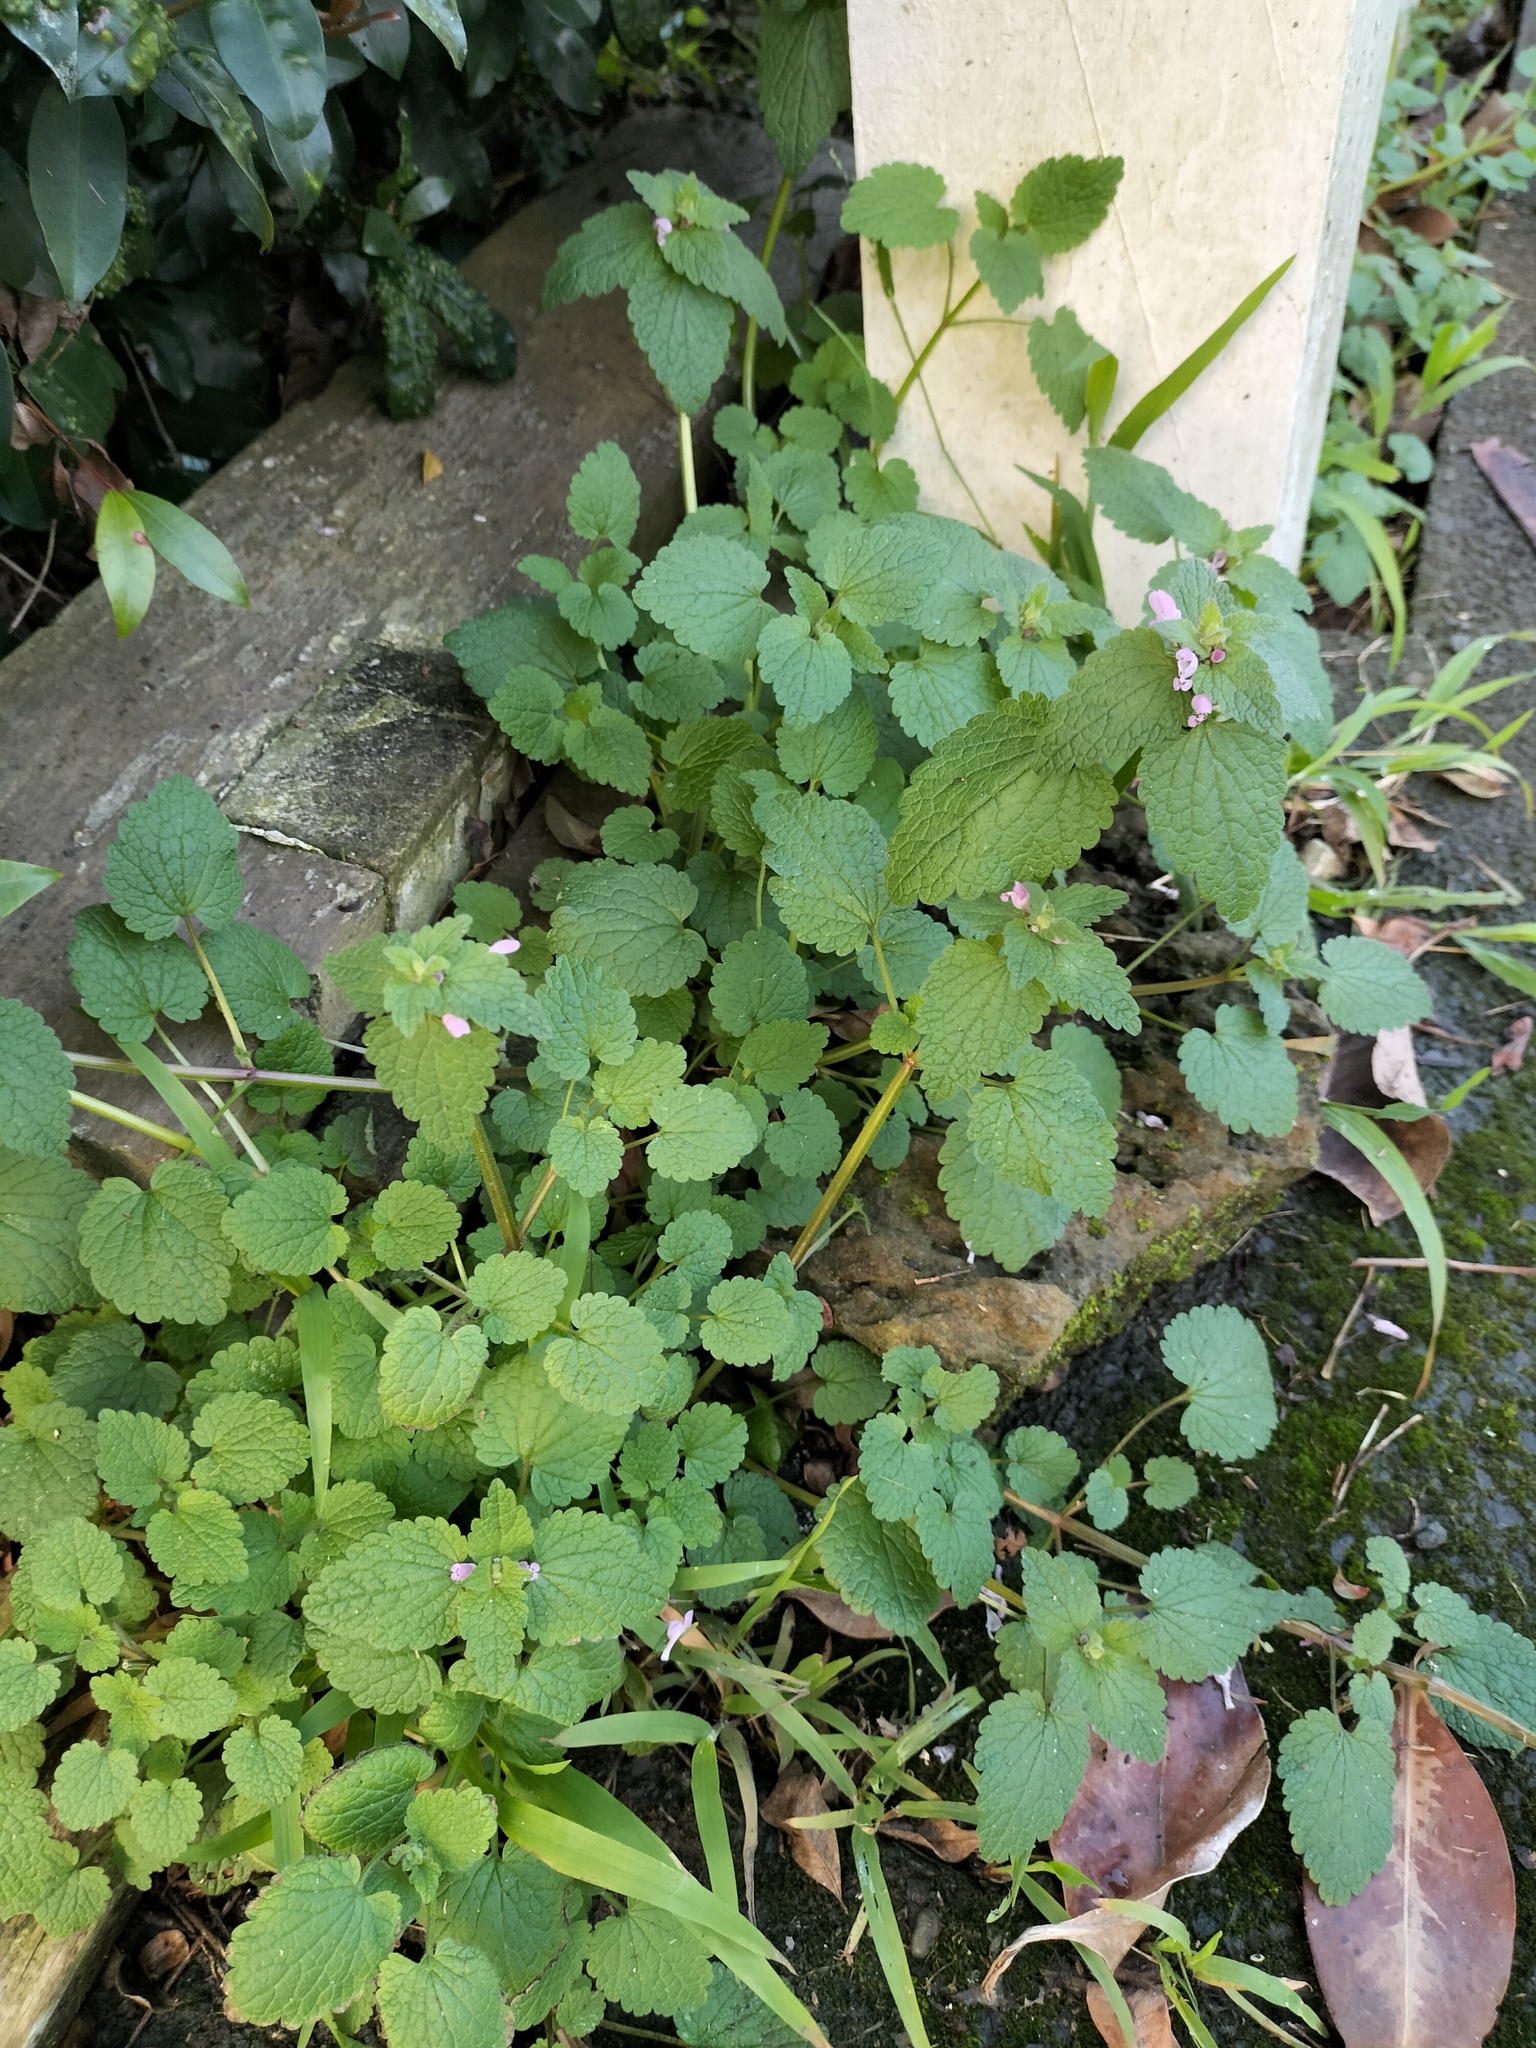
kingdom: Plantae
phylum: Tracheophyta
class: Magnoliopsida
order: Lamiales
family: Lamiaceae
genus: Lamium
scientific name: Lamium purpureum
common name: Red dead-nettle
